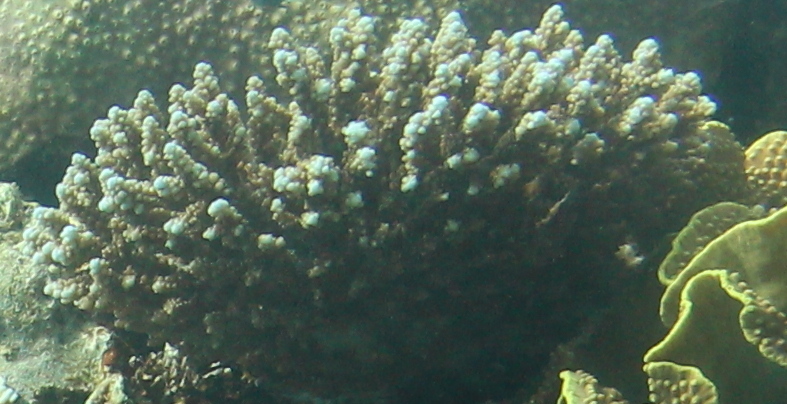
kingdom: Animalia
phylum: Cnidaria
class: Anthozoa
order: Scleractinia
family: Acroporidae
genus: Acropora
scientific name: Acropora hemprichii
